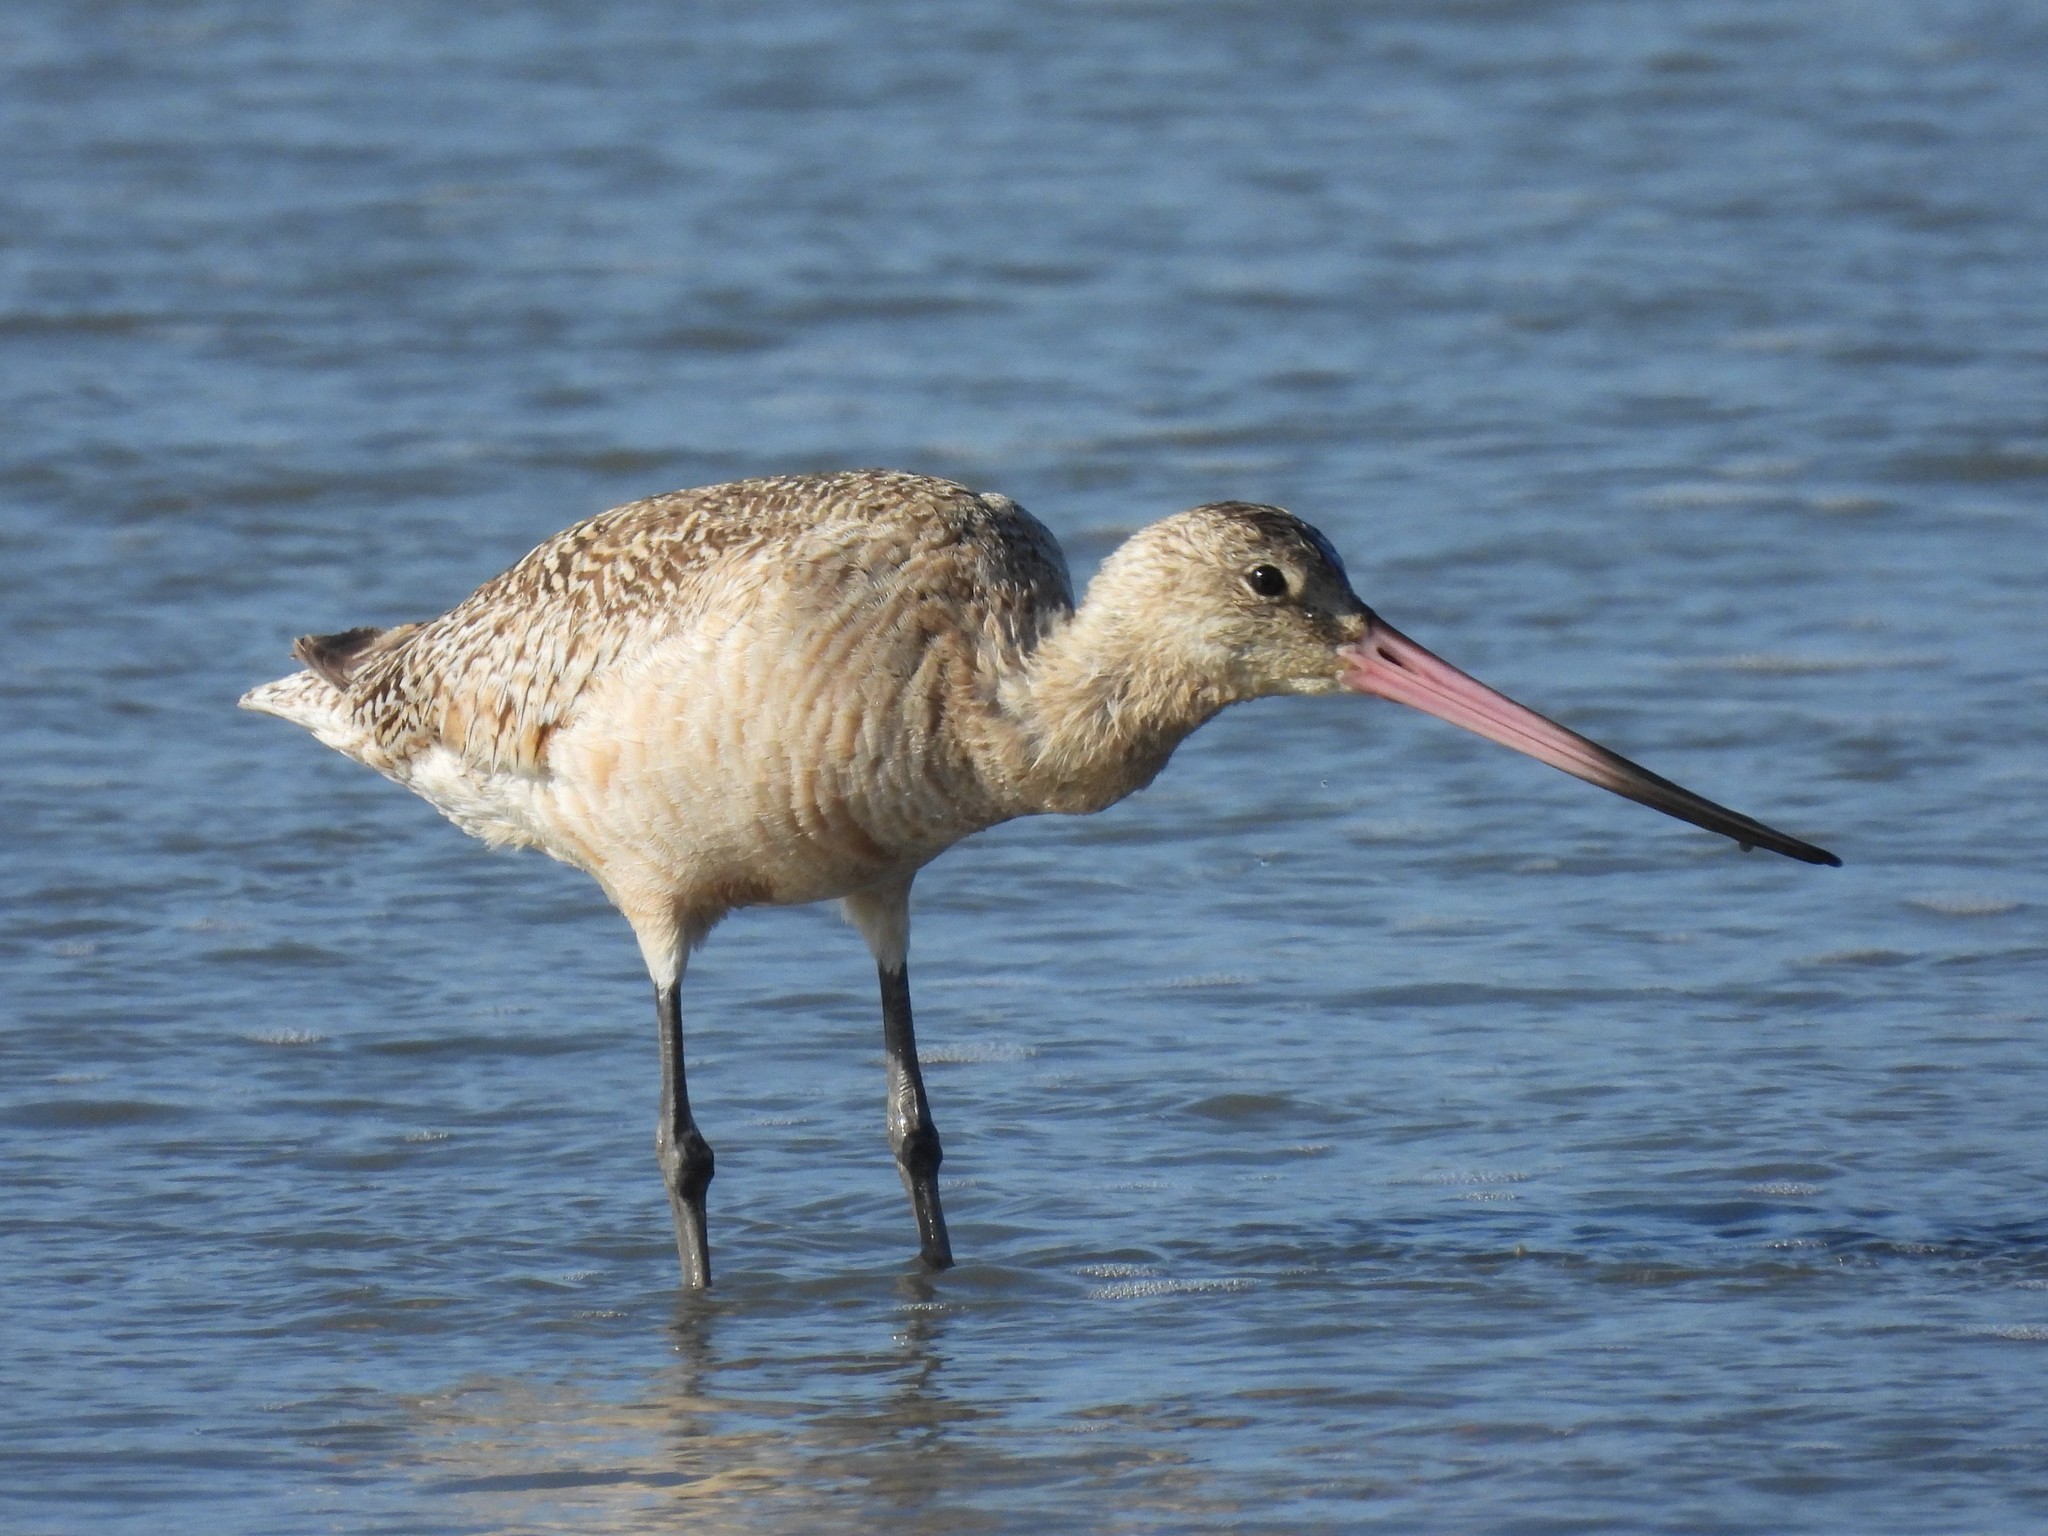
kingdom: Animalia
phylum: Chordata
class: Aves
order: Charadriiformes
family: Scolopacidae
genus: Limosa
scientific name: Limosa fedoa
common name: Marbled godwit
